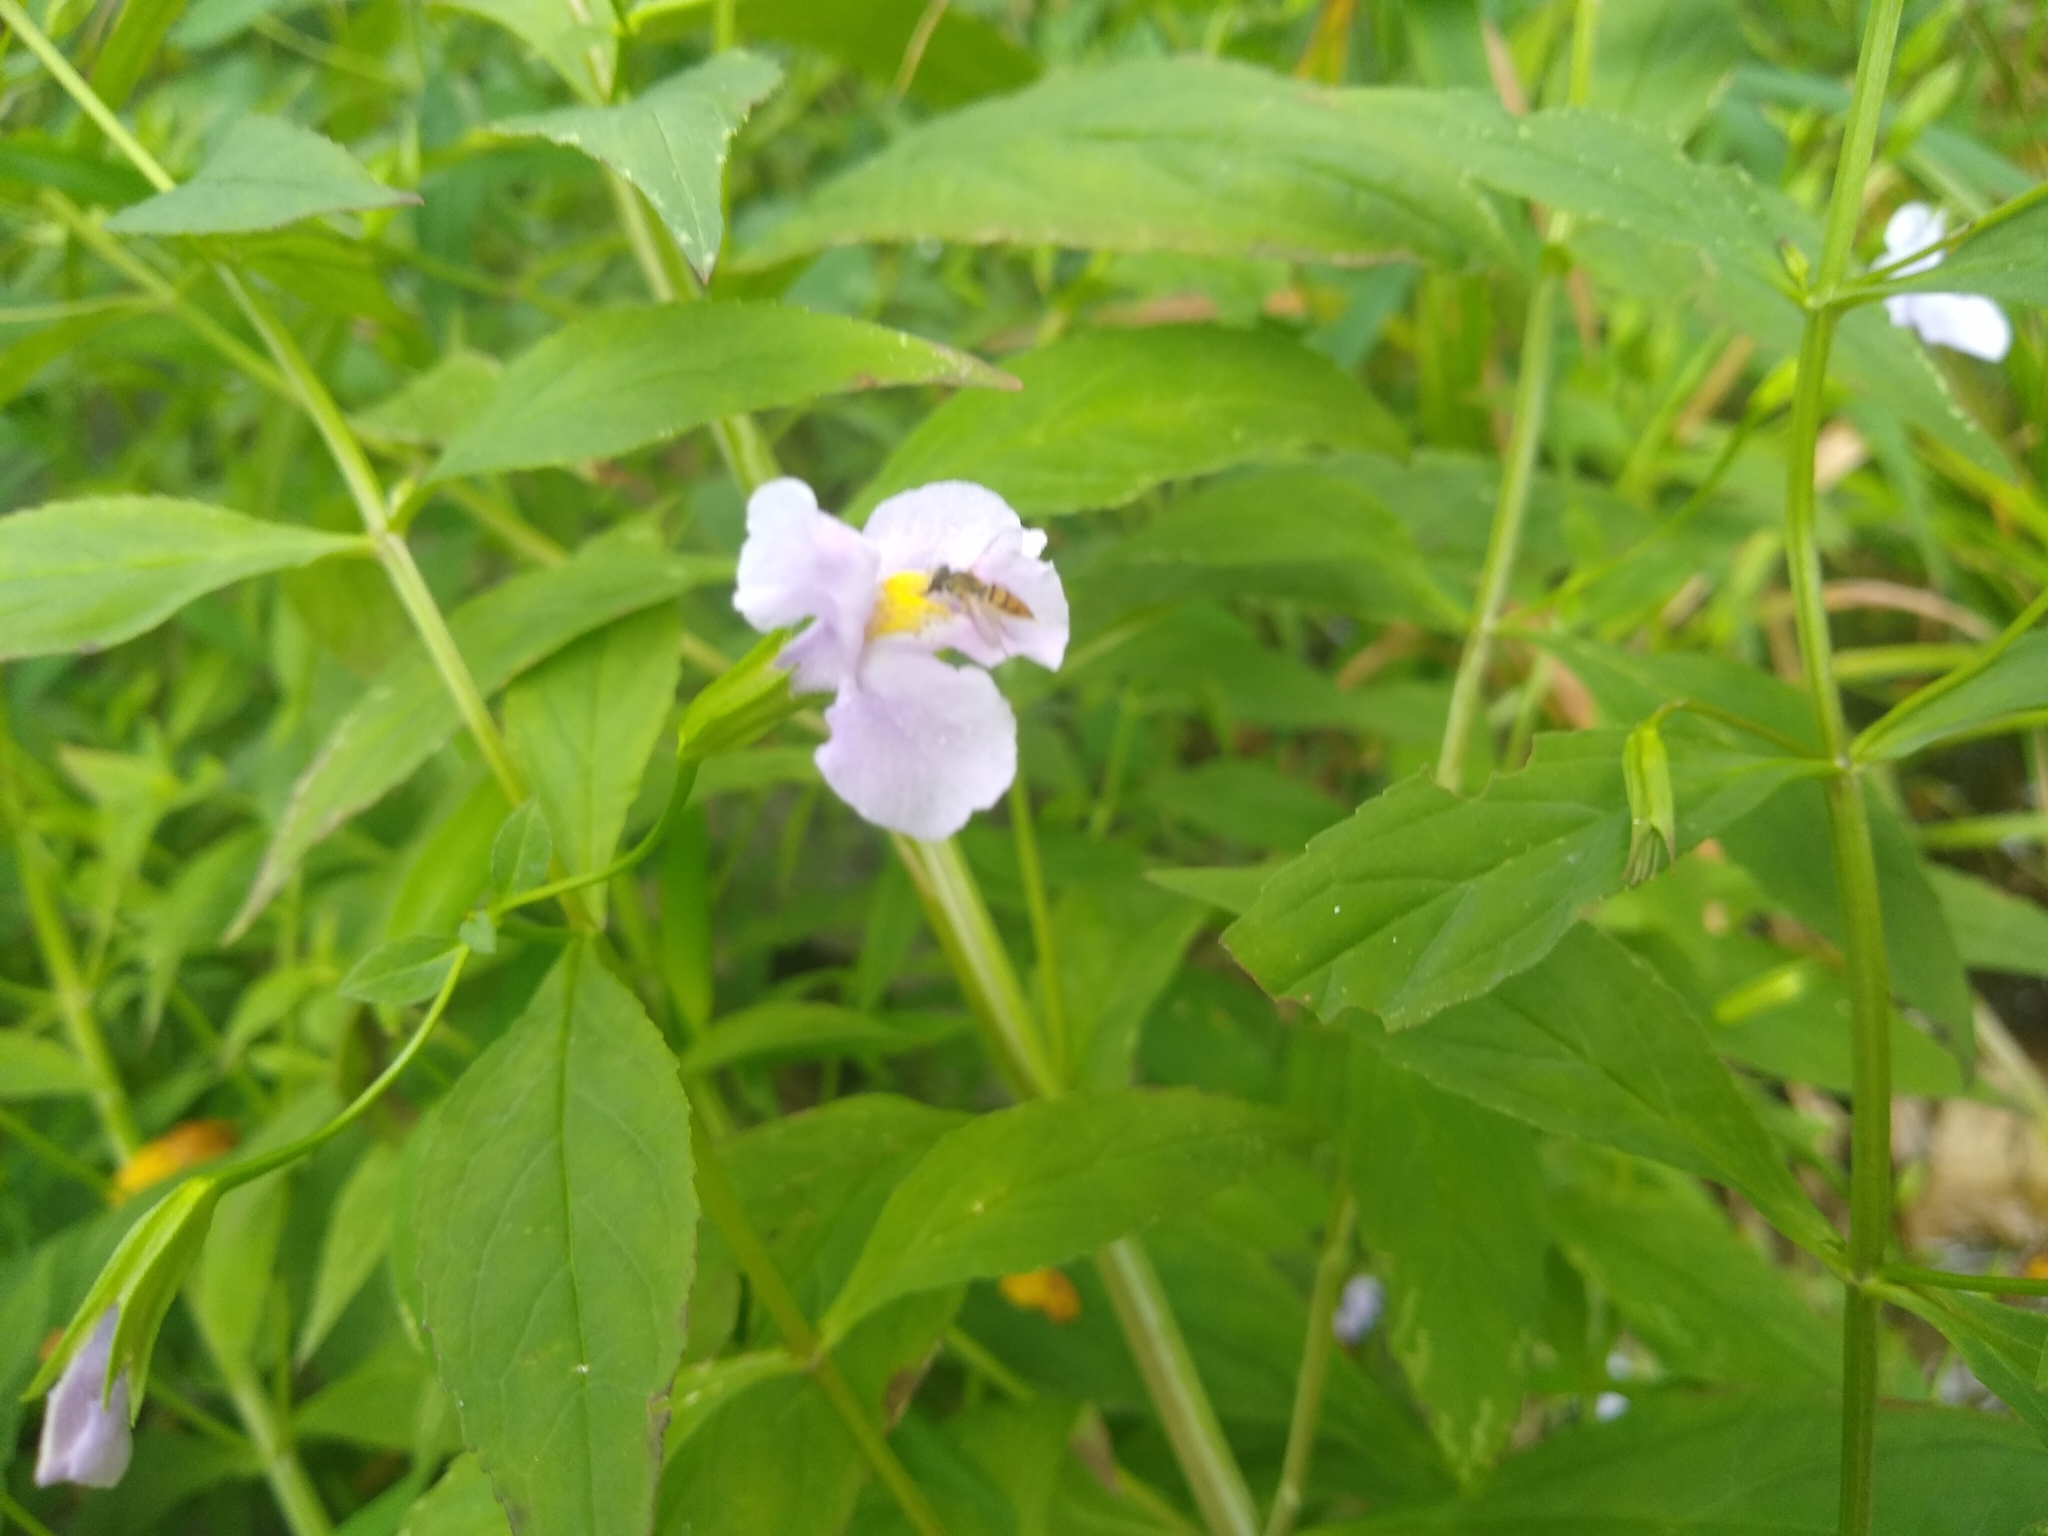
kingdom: Plantae
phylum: Tracheophyta
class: Magnoliopsida
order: Lamiales
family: Phrymaceae
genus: Mimulus
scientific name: Mimulus
